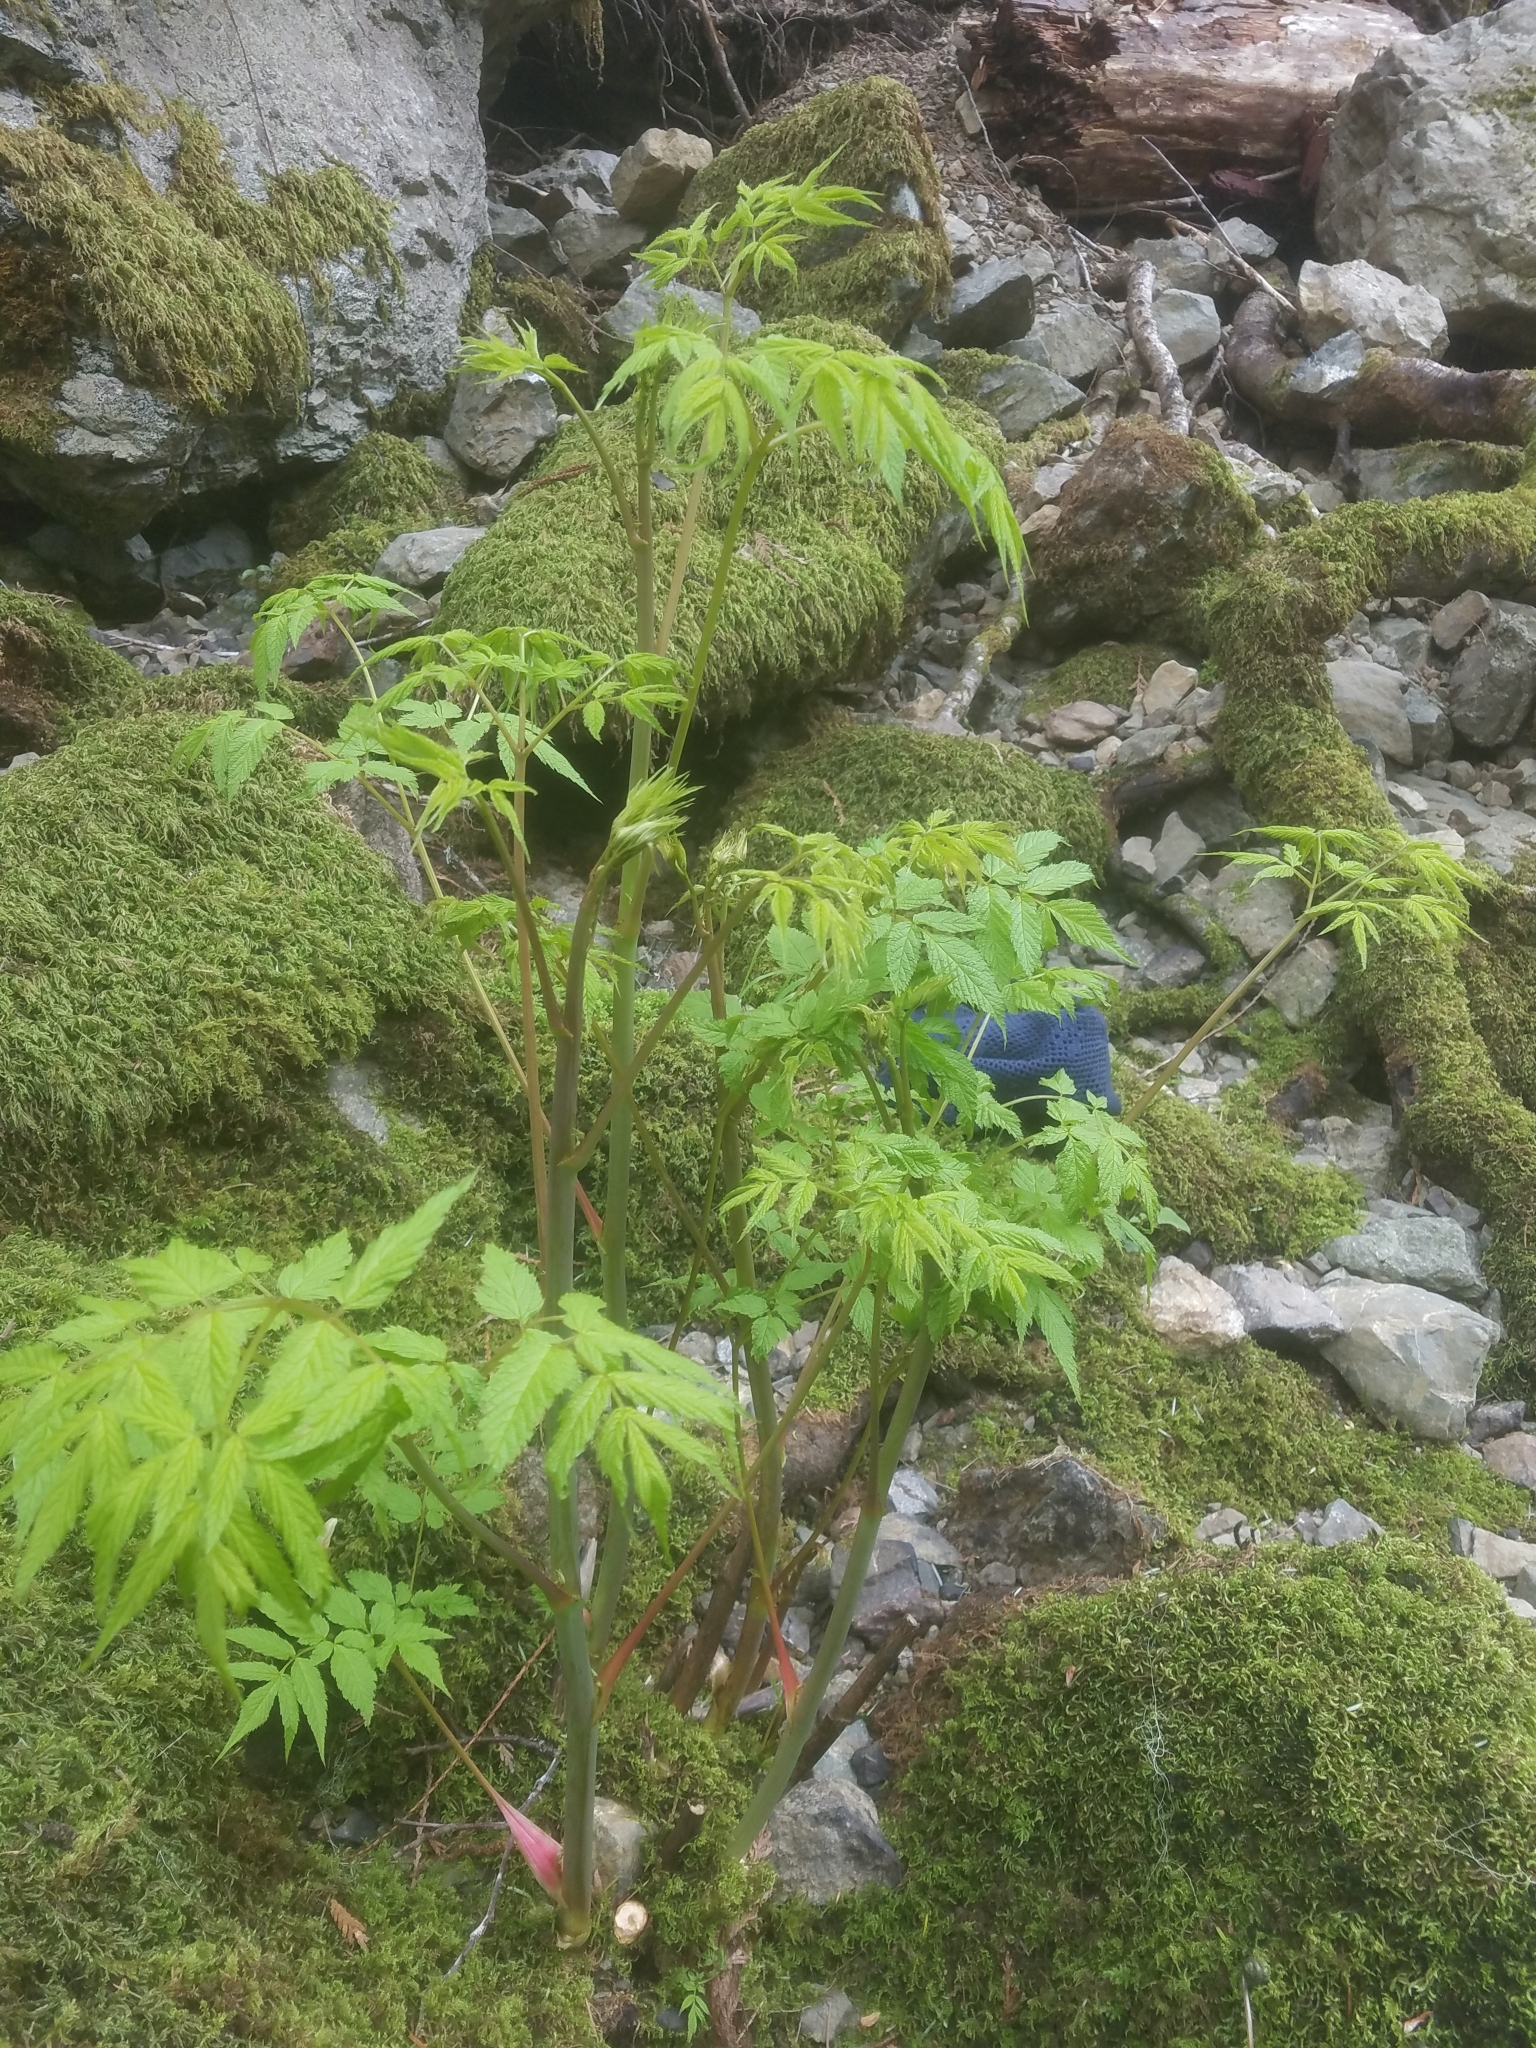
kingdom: Plantae
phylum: Tracheophyta
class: Magnoliopsida
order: Rosales
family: Rosaceae
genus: Aruncus
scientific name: Aruncus dioicus
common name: Buck's-beard
